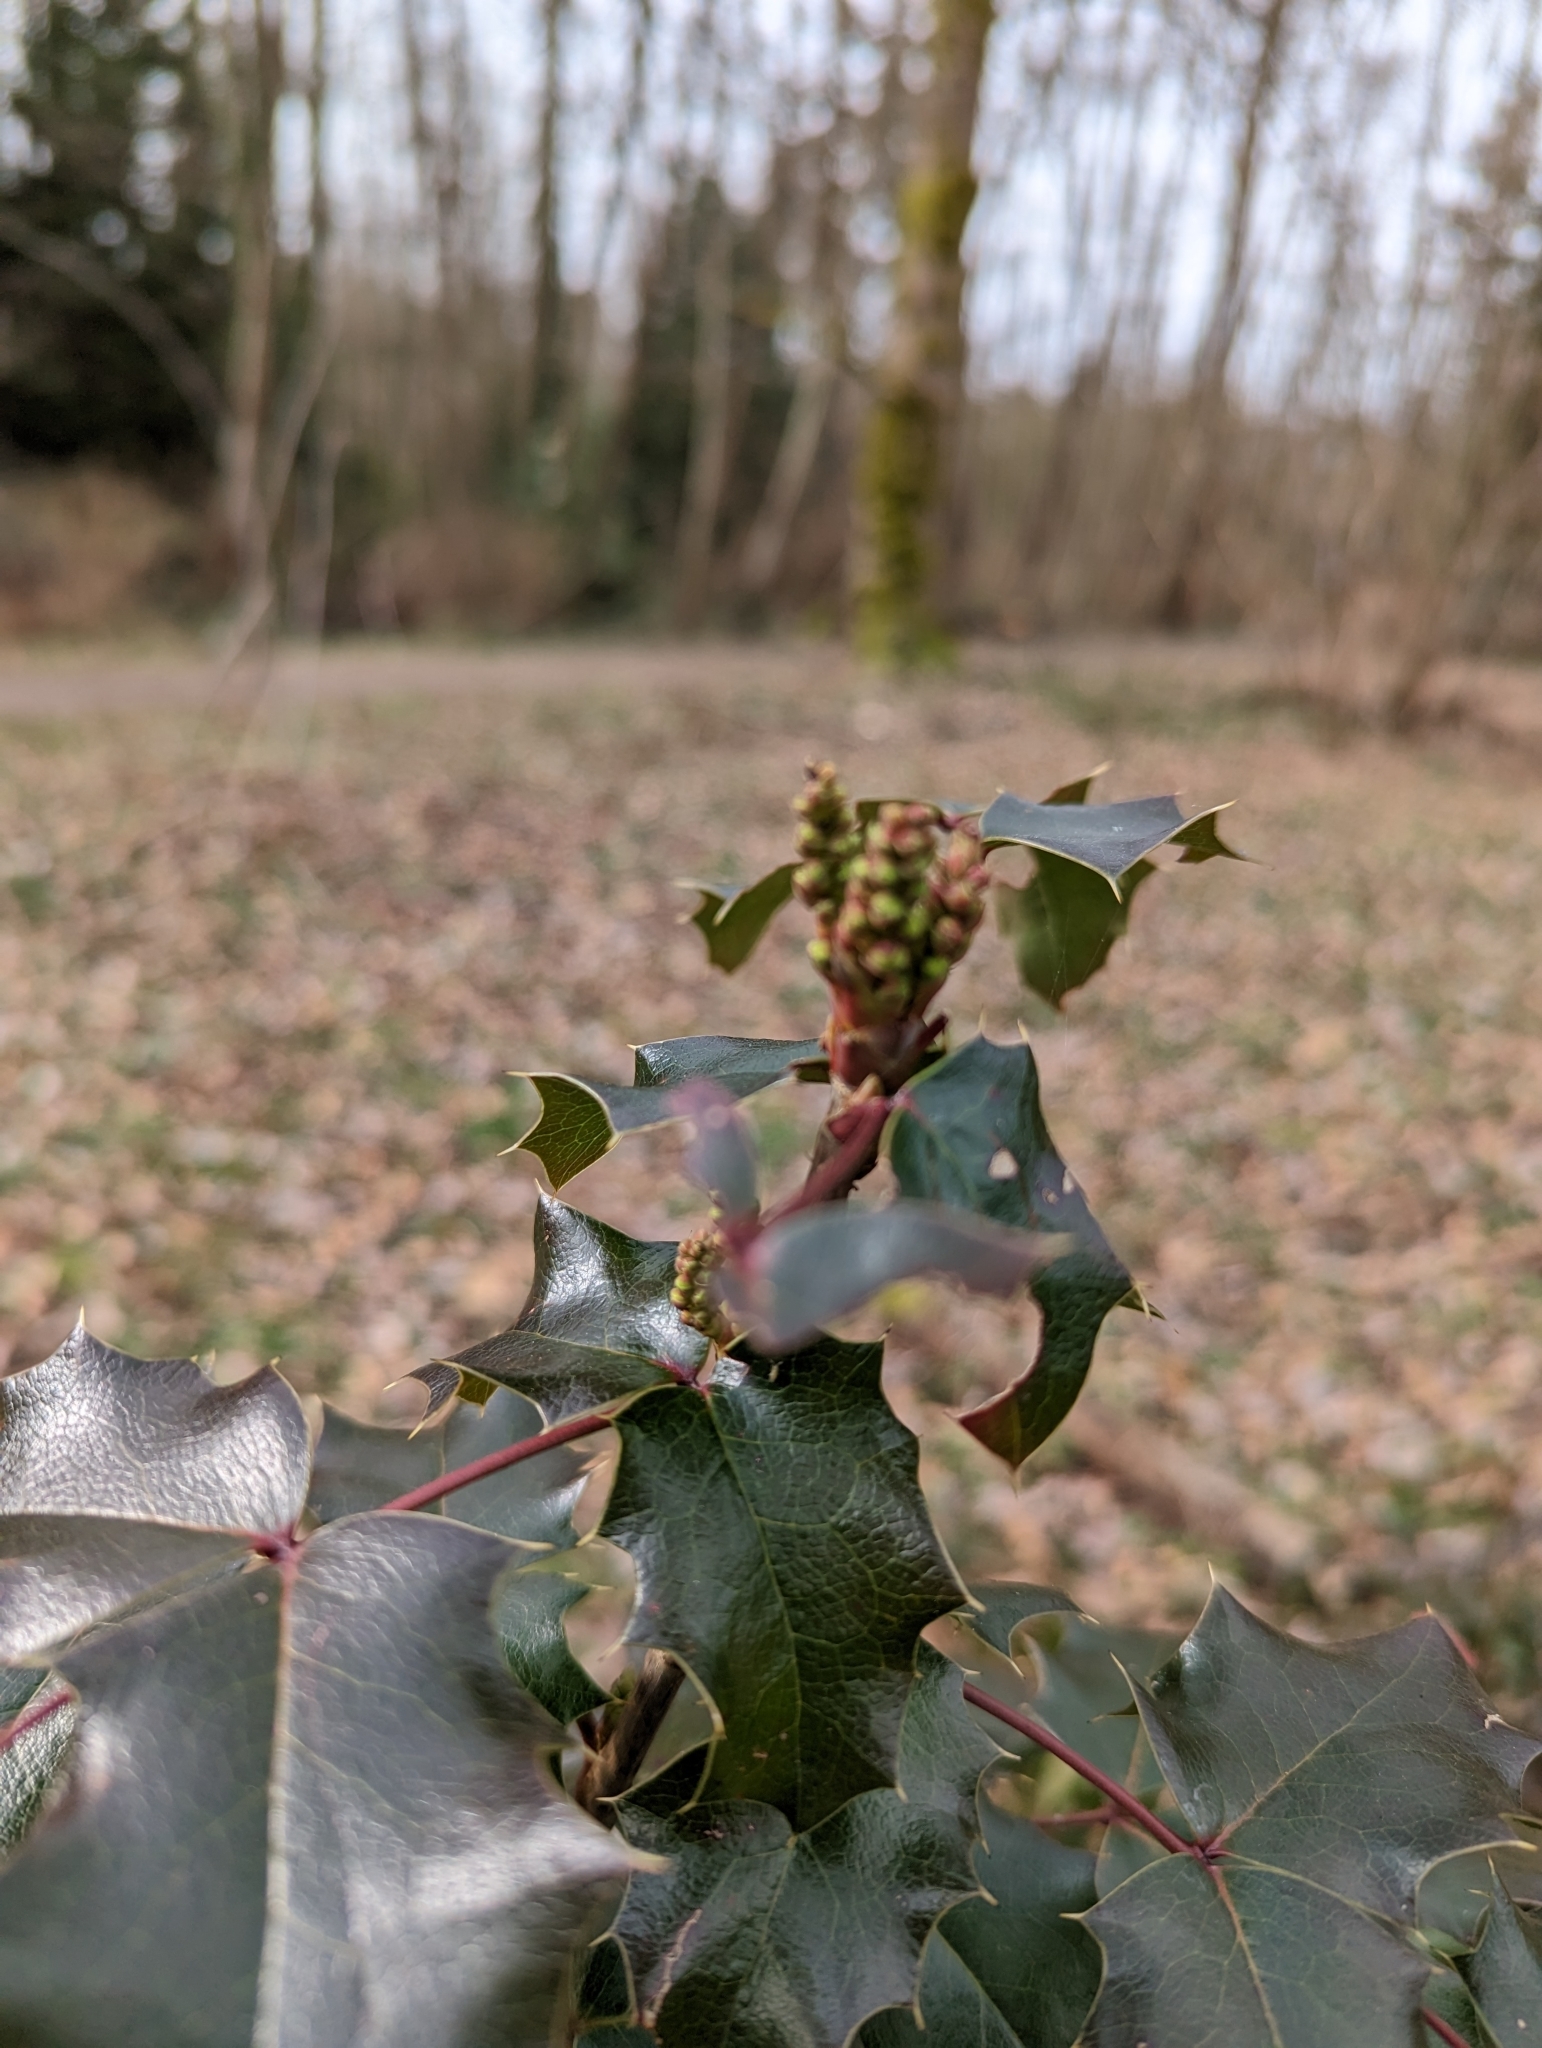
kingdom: Plantae
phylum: Tracheophyta
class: Magnoliopsida
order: Ranunculales
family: Berberidaceae
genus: Mahonia
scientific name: Mahonia aquifolium
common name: Oregon-grape
